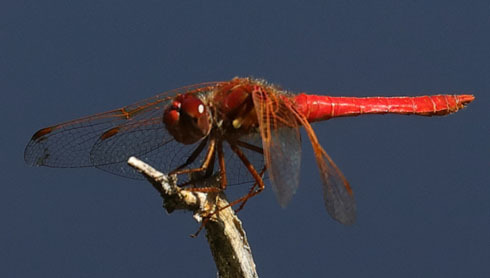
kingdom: Animalia
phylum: Arthropoda
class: Insecta
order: Odonata
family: Libellulidae
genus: Sympetrum
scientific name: Sympetrum illotum
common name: Cardinal meadowhawk
